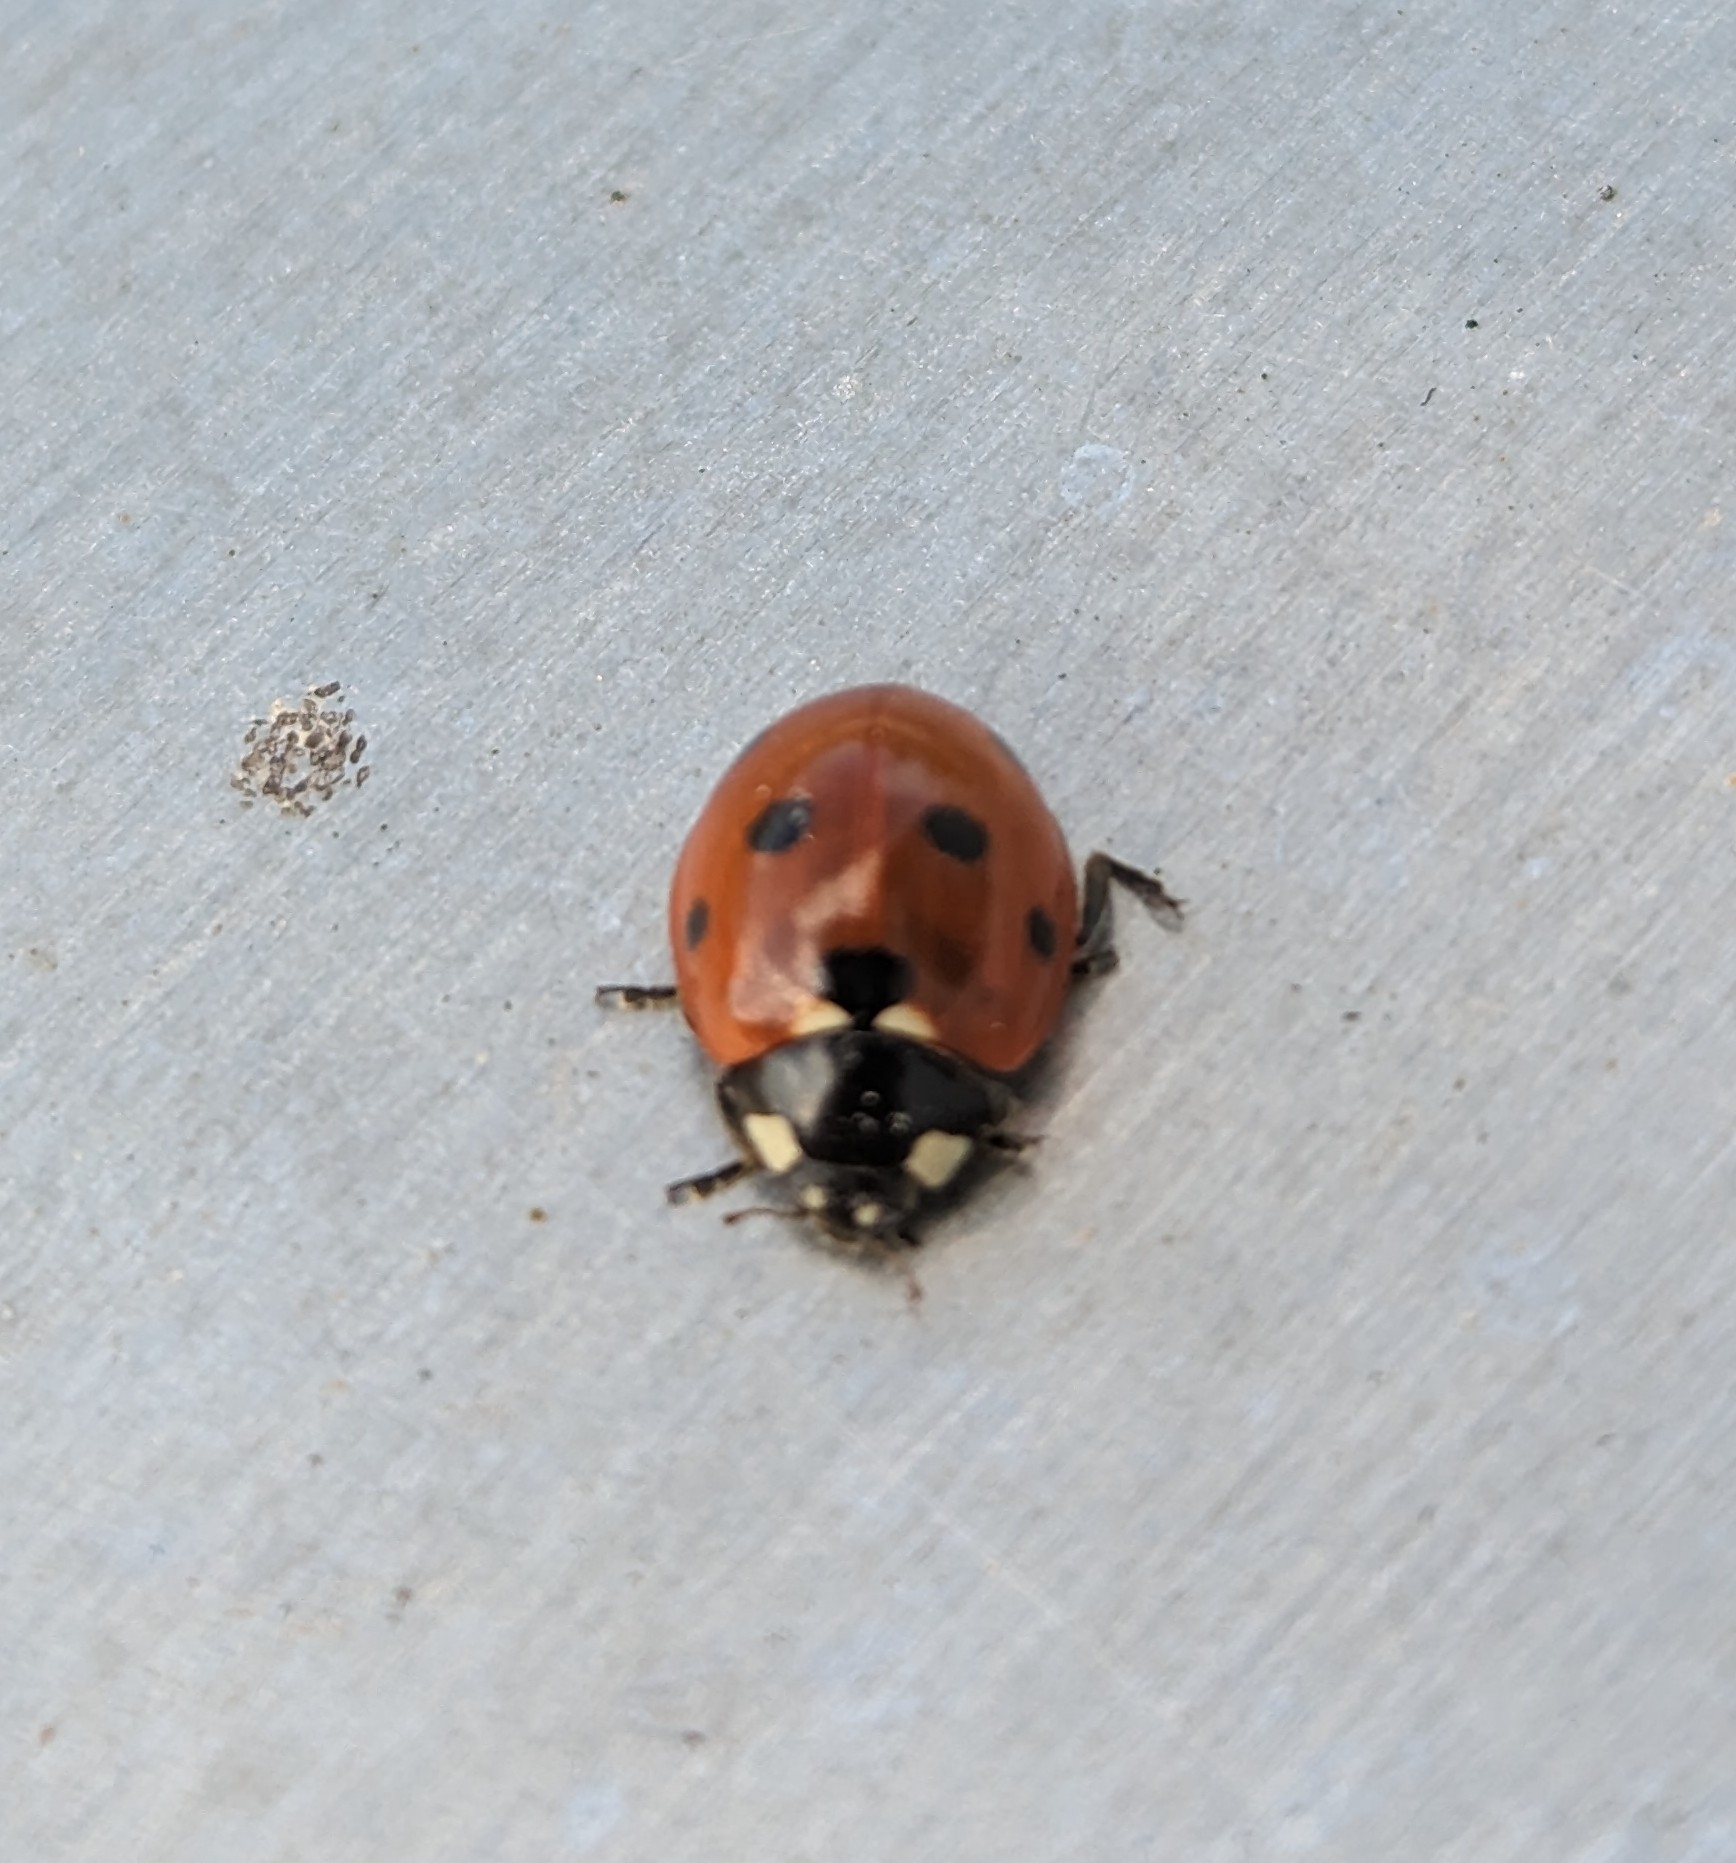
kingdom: Animalia
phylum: Arthropoda
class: Insecta
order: Coleoptera
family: Coccinellidae
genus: Coccinella
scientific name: Coccinella septempunctata
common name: Sevenspotted lady beetle
